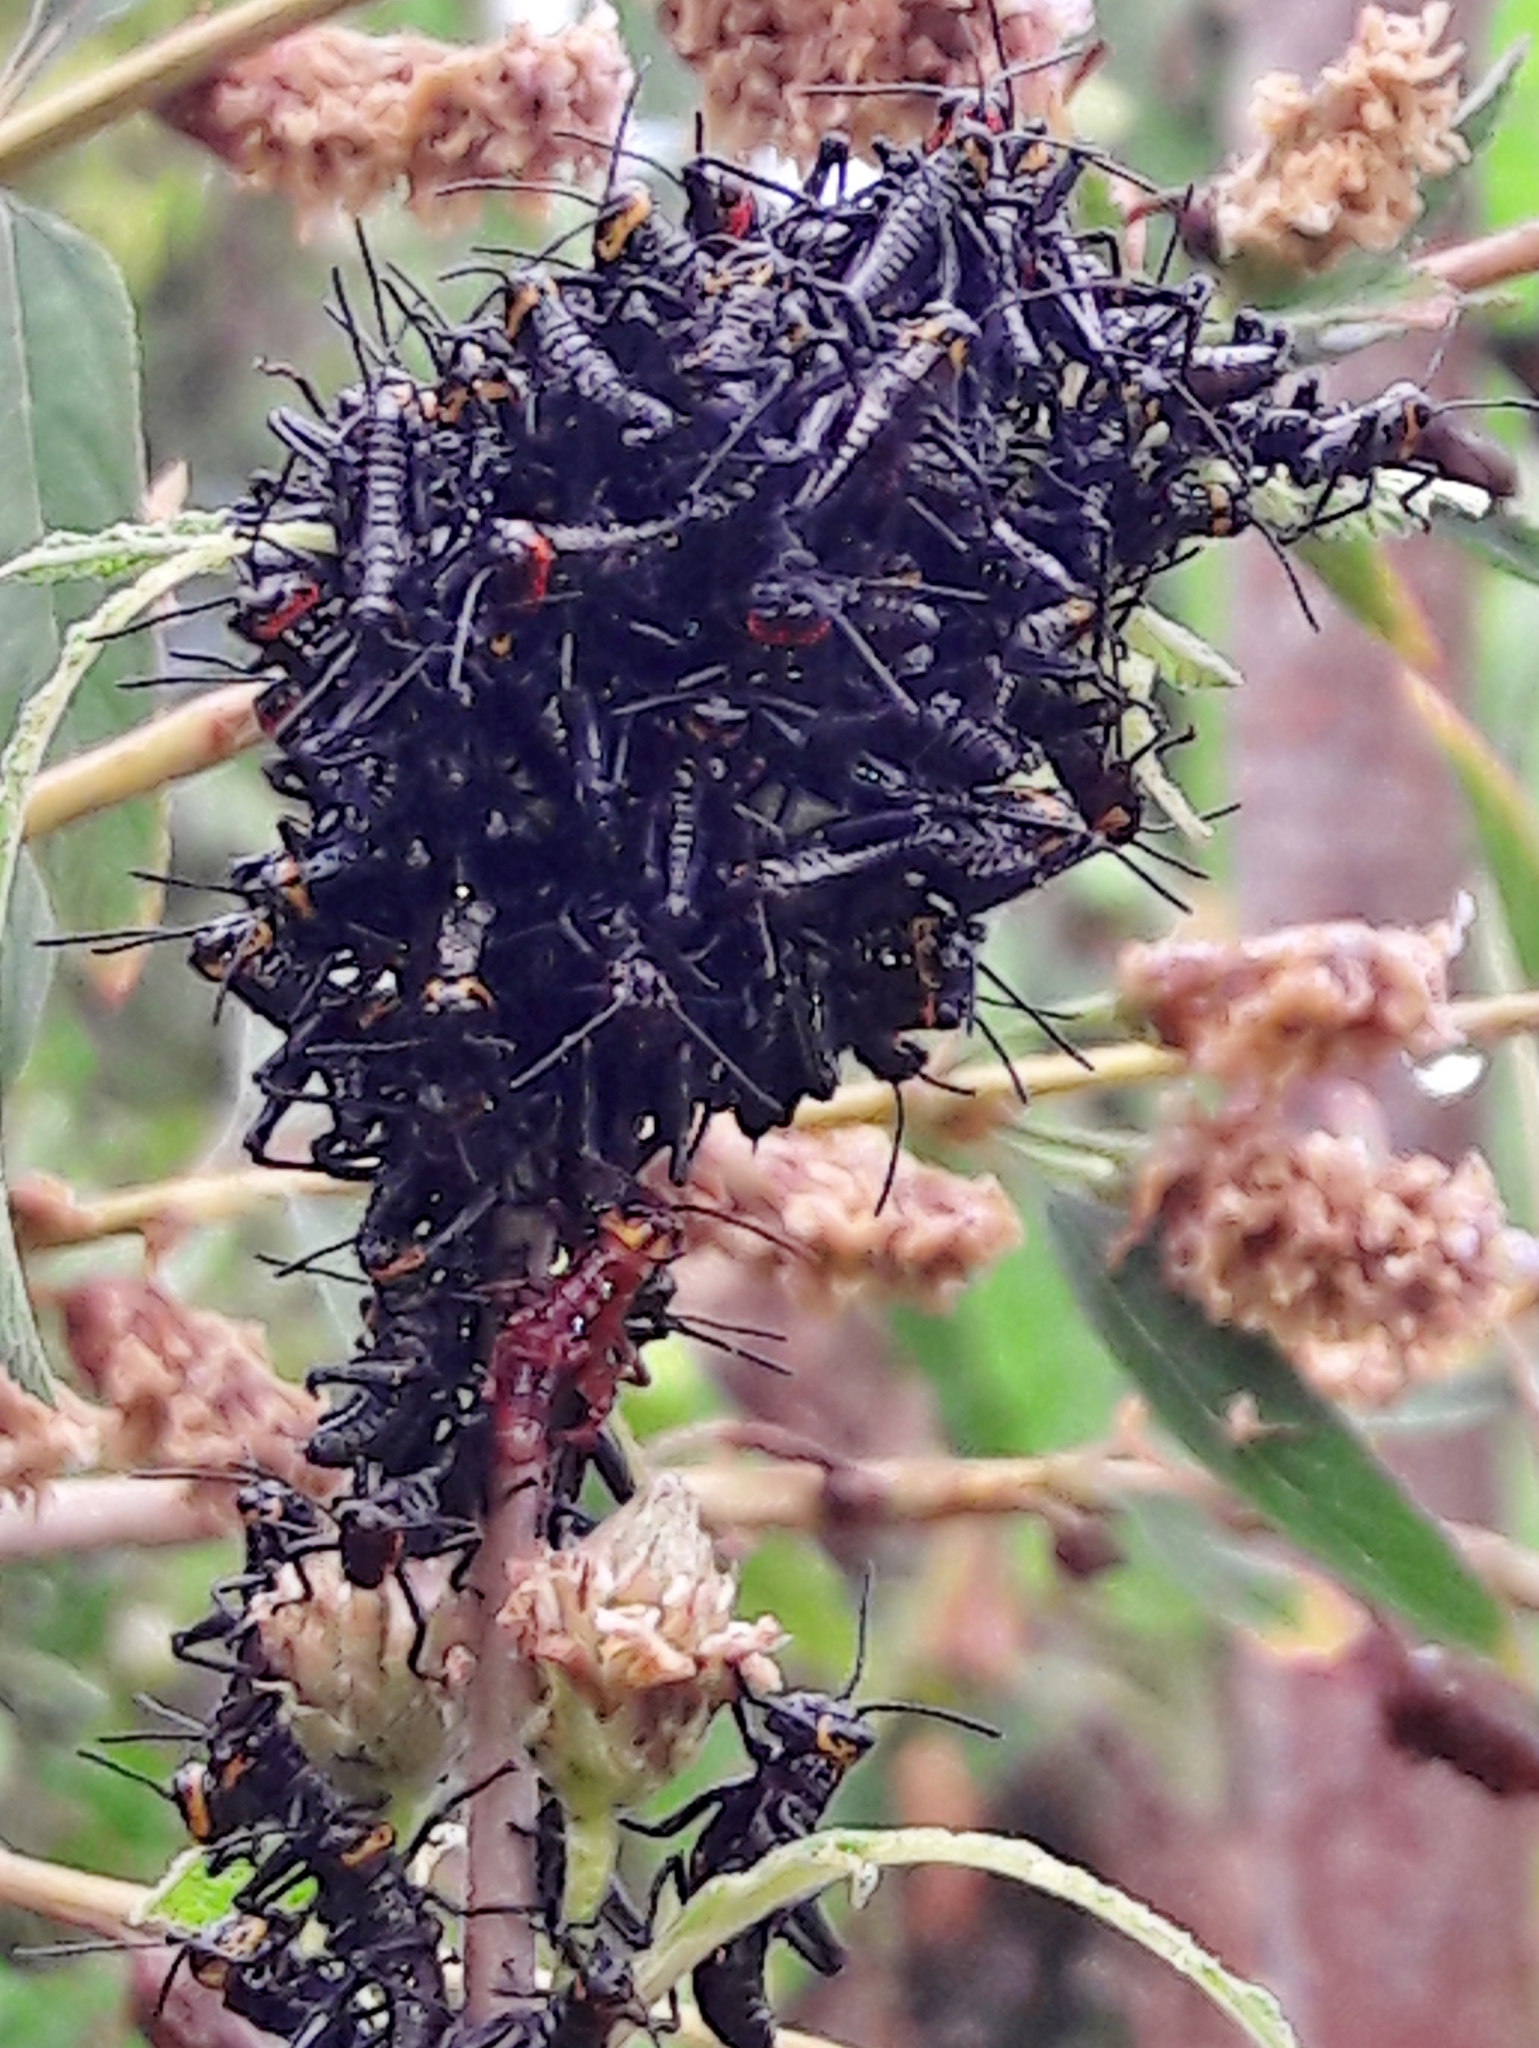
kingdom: Animalia
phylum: Arthropoda
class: Insecta
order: Orthoptera
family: Romaleidae
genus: Chromacris
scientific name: Chromacris speciosa
